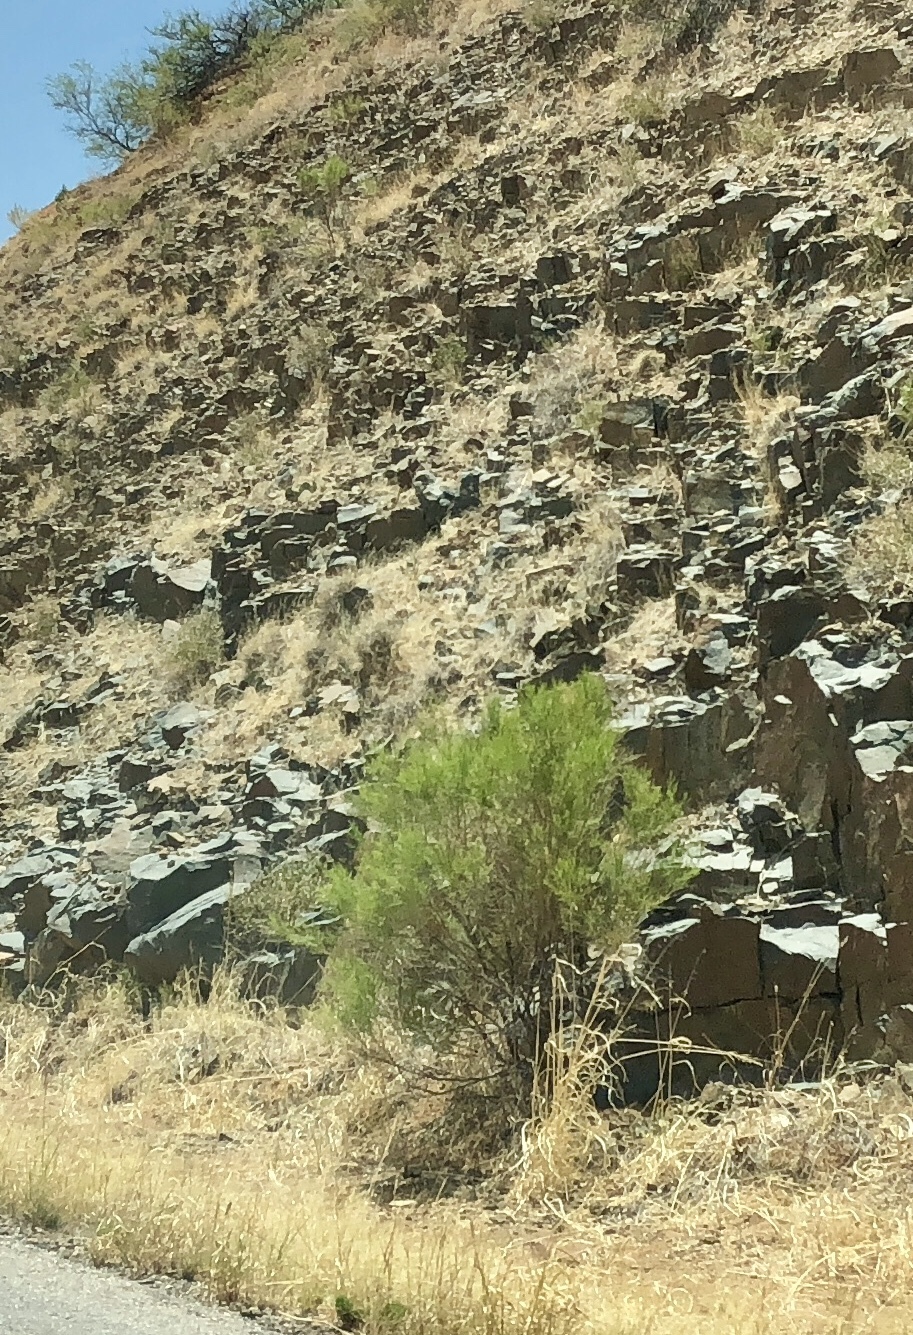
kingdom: Plantae
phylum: Tracheophyta
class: Magnoliopsida
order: Asterales
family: Asteraceae
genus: Baccharis
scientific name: Baccharis sarothroides
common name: Desert-broom
